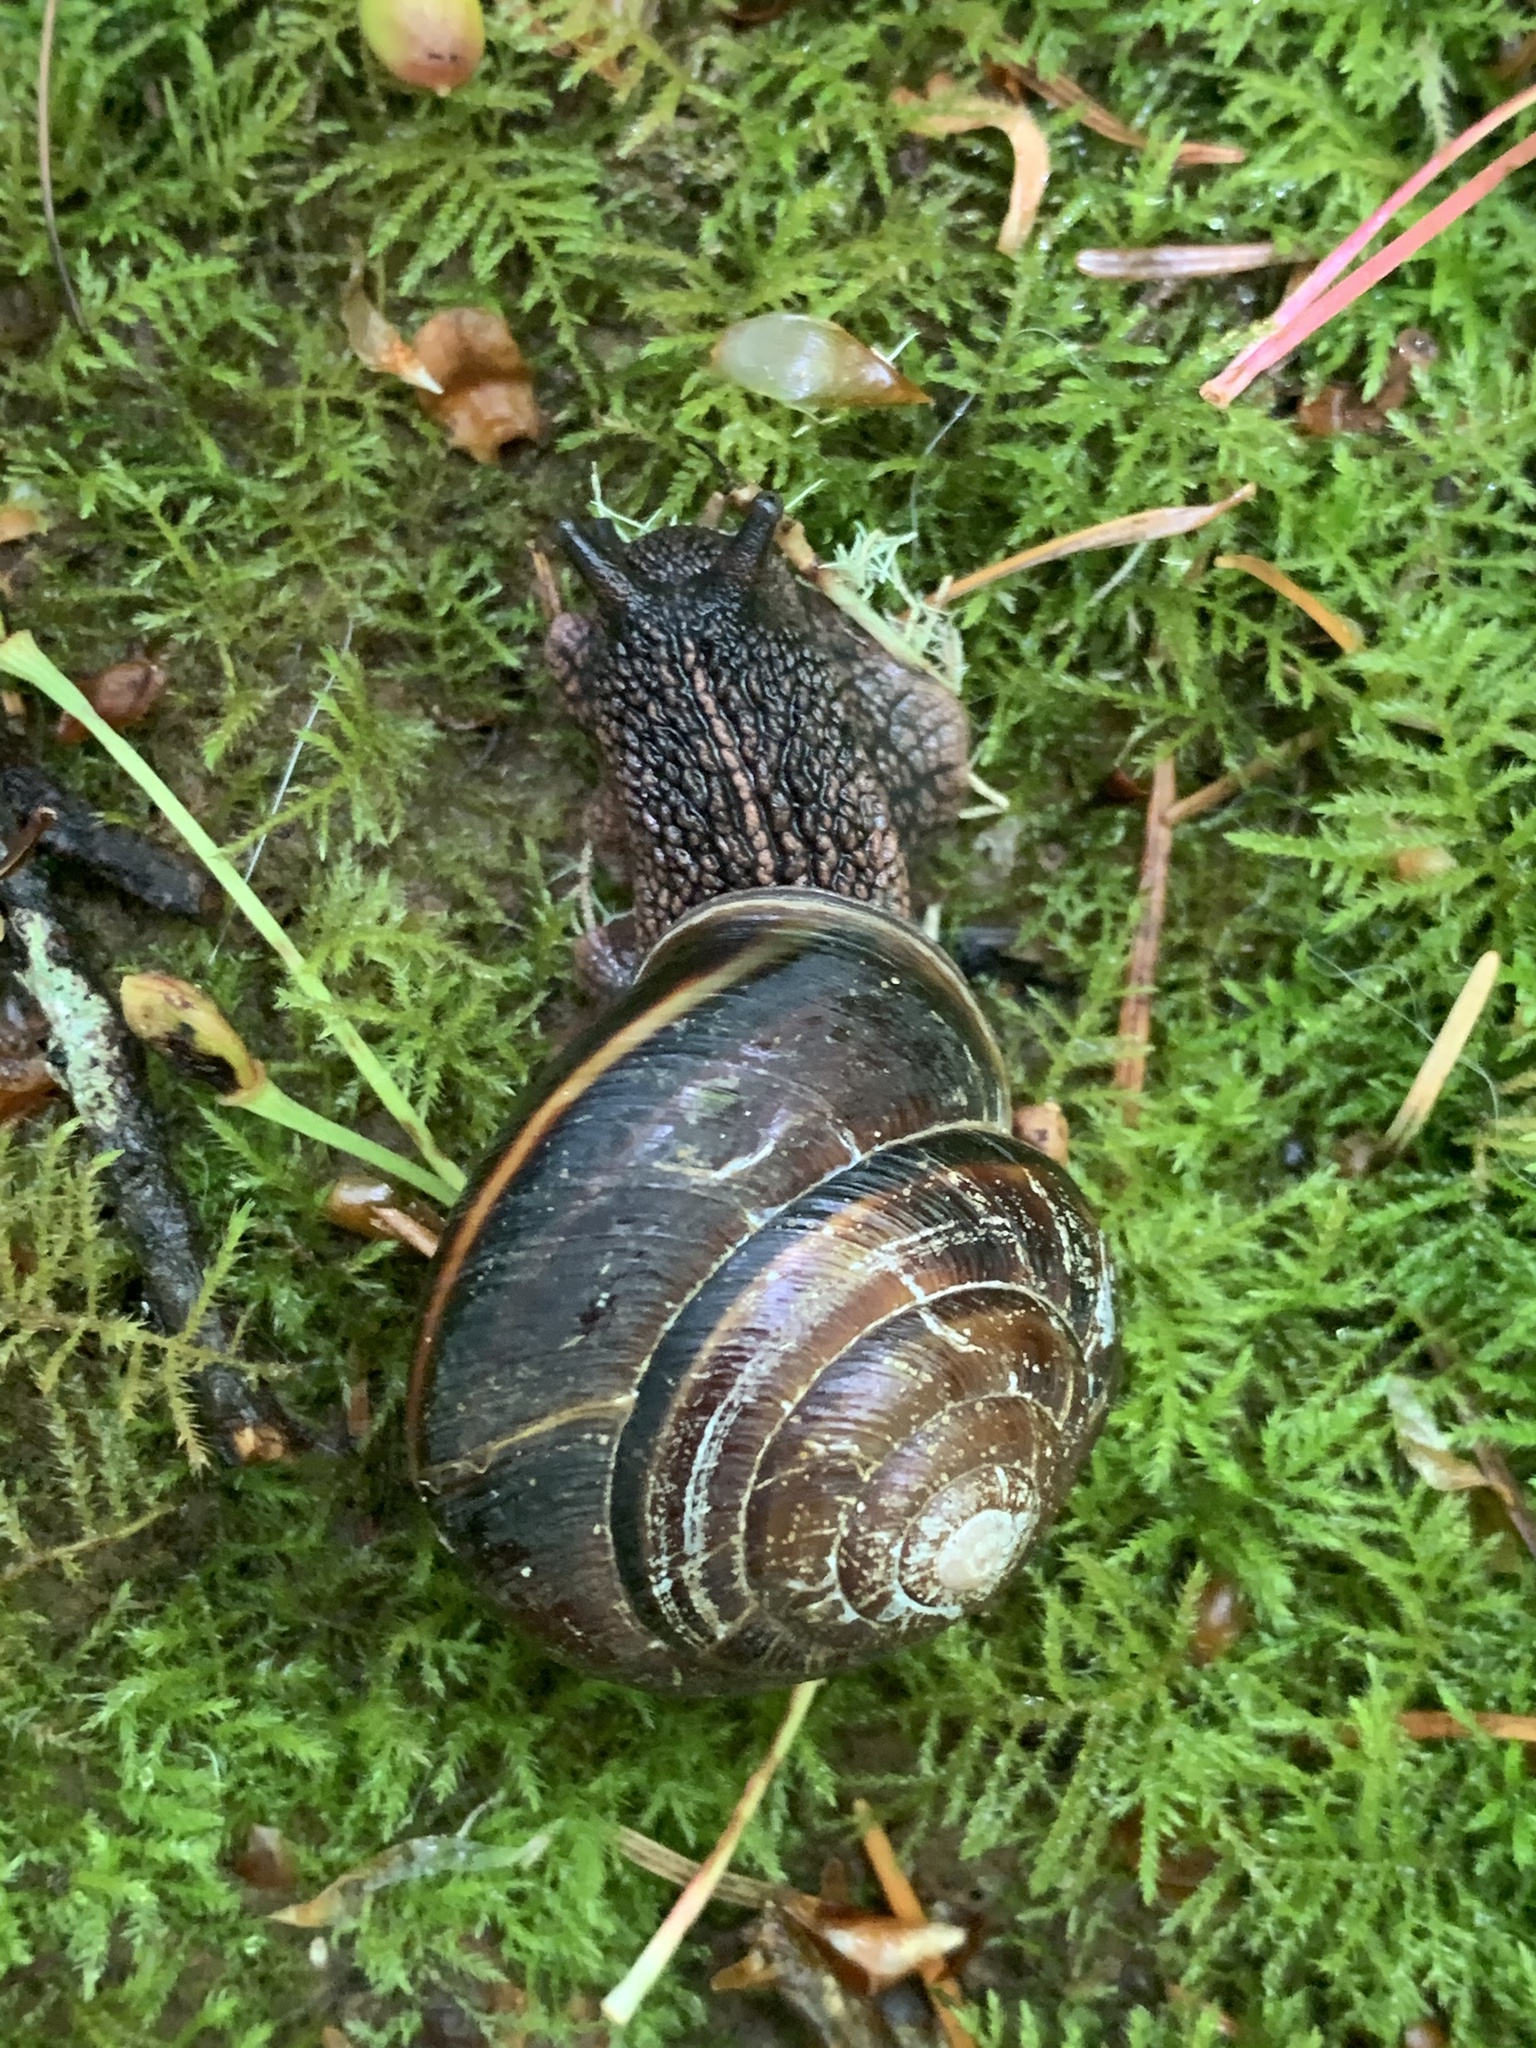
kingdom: Animalia
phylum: Mollusca
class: Gastropoda
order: Stylommatophora
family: Xanthonychidae
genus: Monadenia
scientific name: Monadenia fidelis
